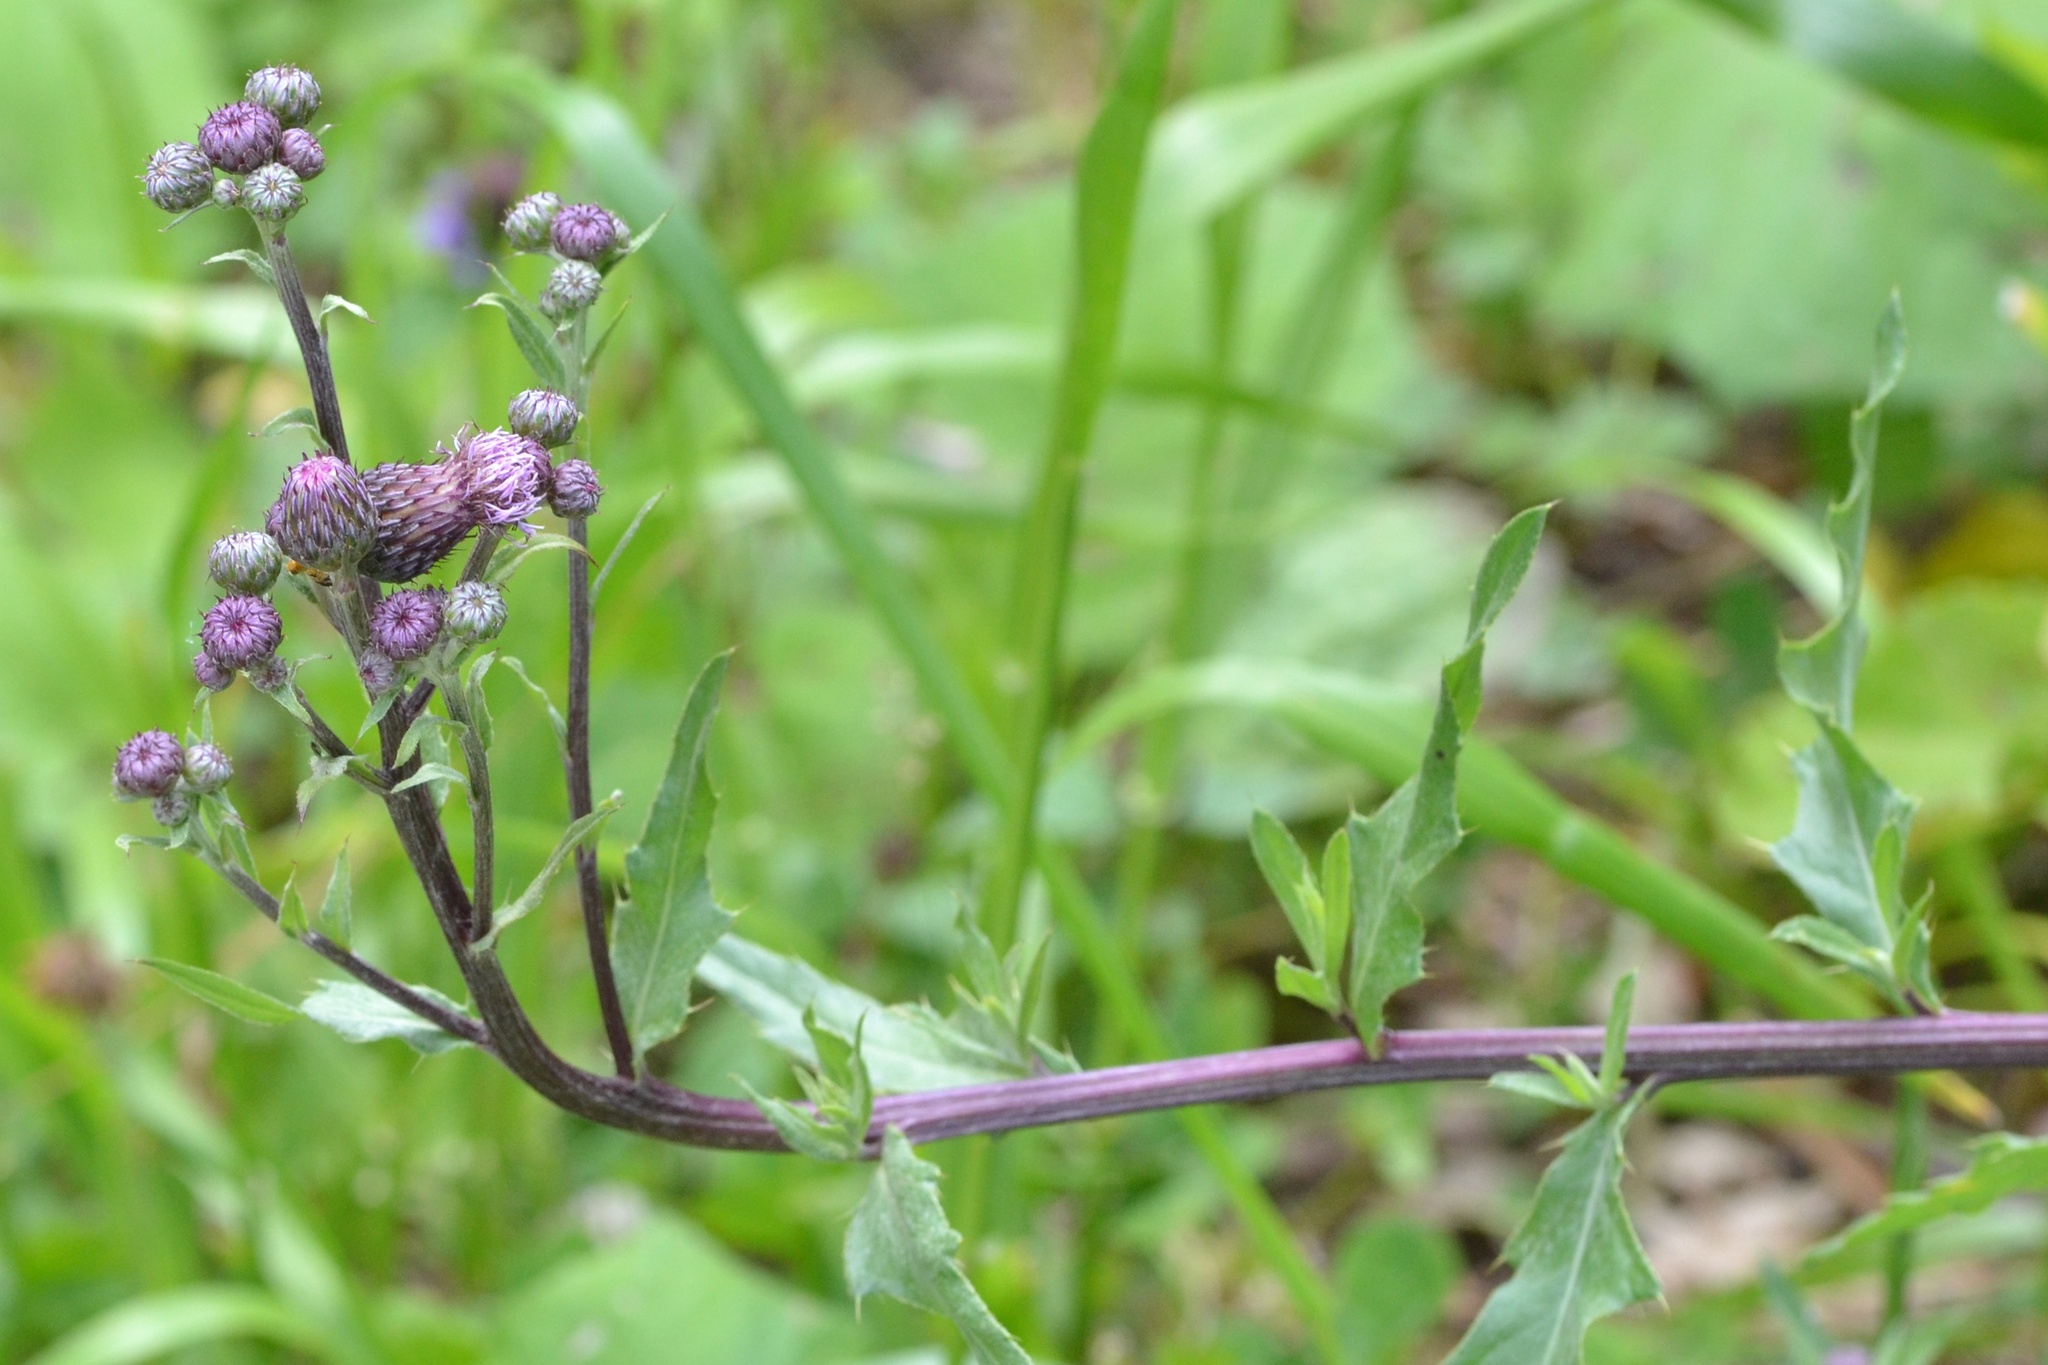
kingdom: Plantae
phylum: Tracheophyta
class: Magnoliopsida
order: Asterales
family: Asteraceae
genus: Cirsium
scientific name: Cirsium arvense
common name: Creeping thistle
